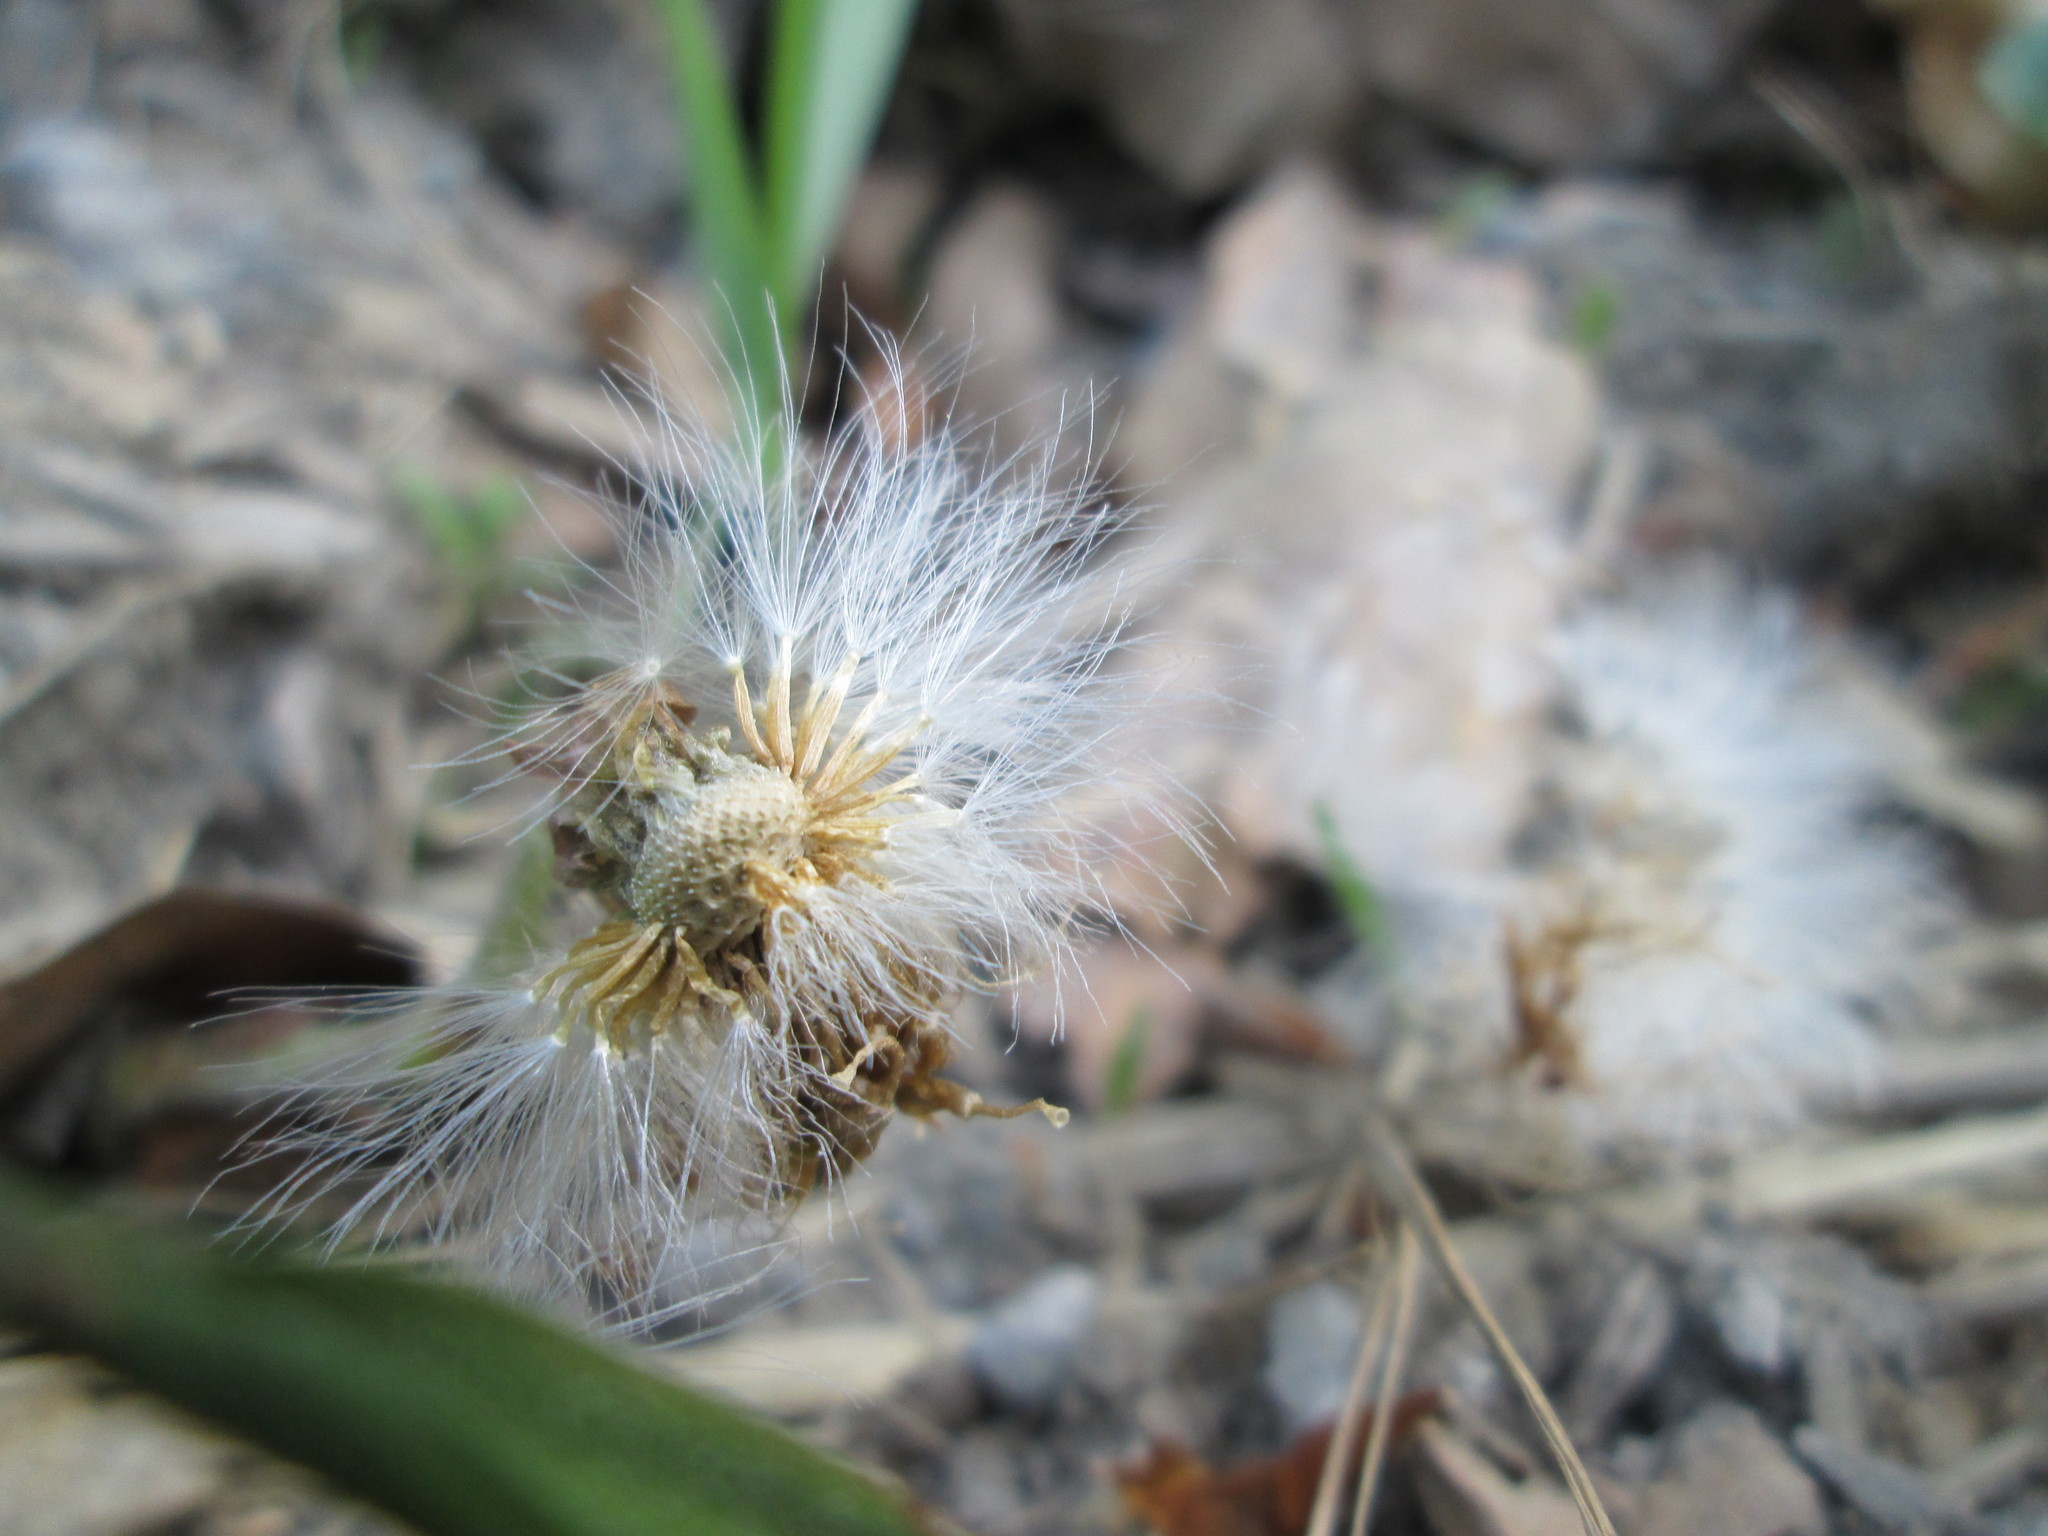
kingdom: Plantae
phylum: Tracheophyta
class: Magnoliopsida
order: Asterales
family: Asteraceae
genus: Tussilago
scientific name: Tussilago farfara
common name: Coltsfoot
